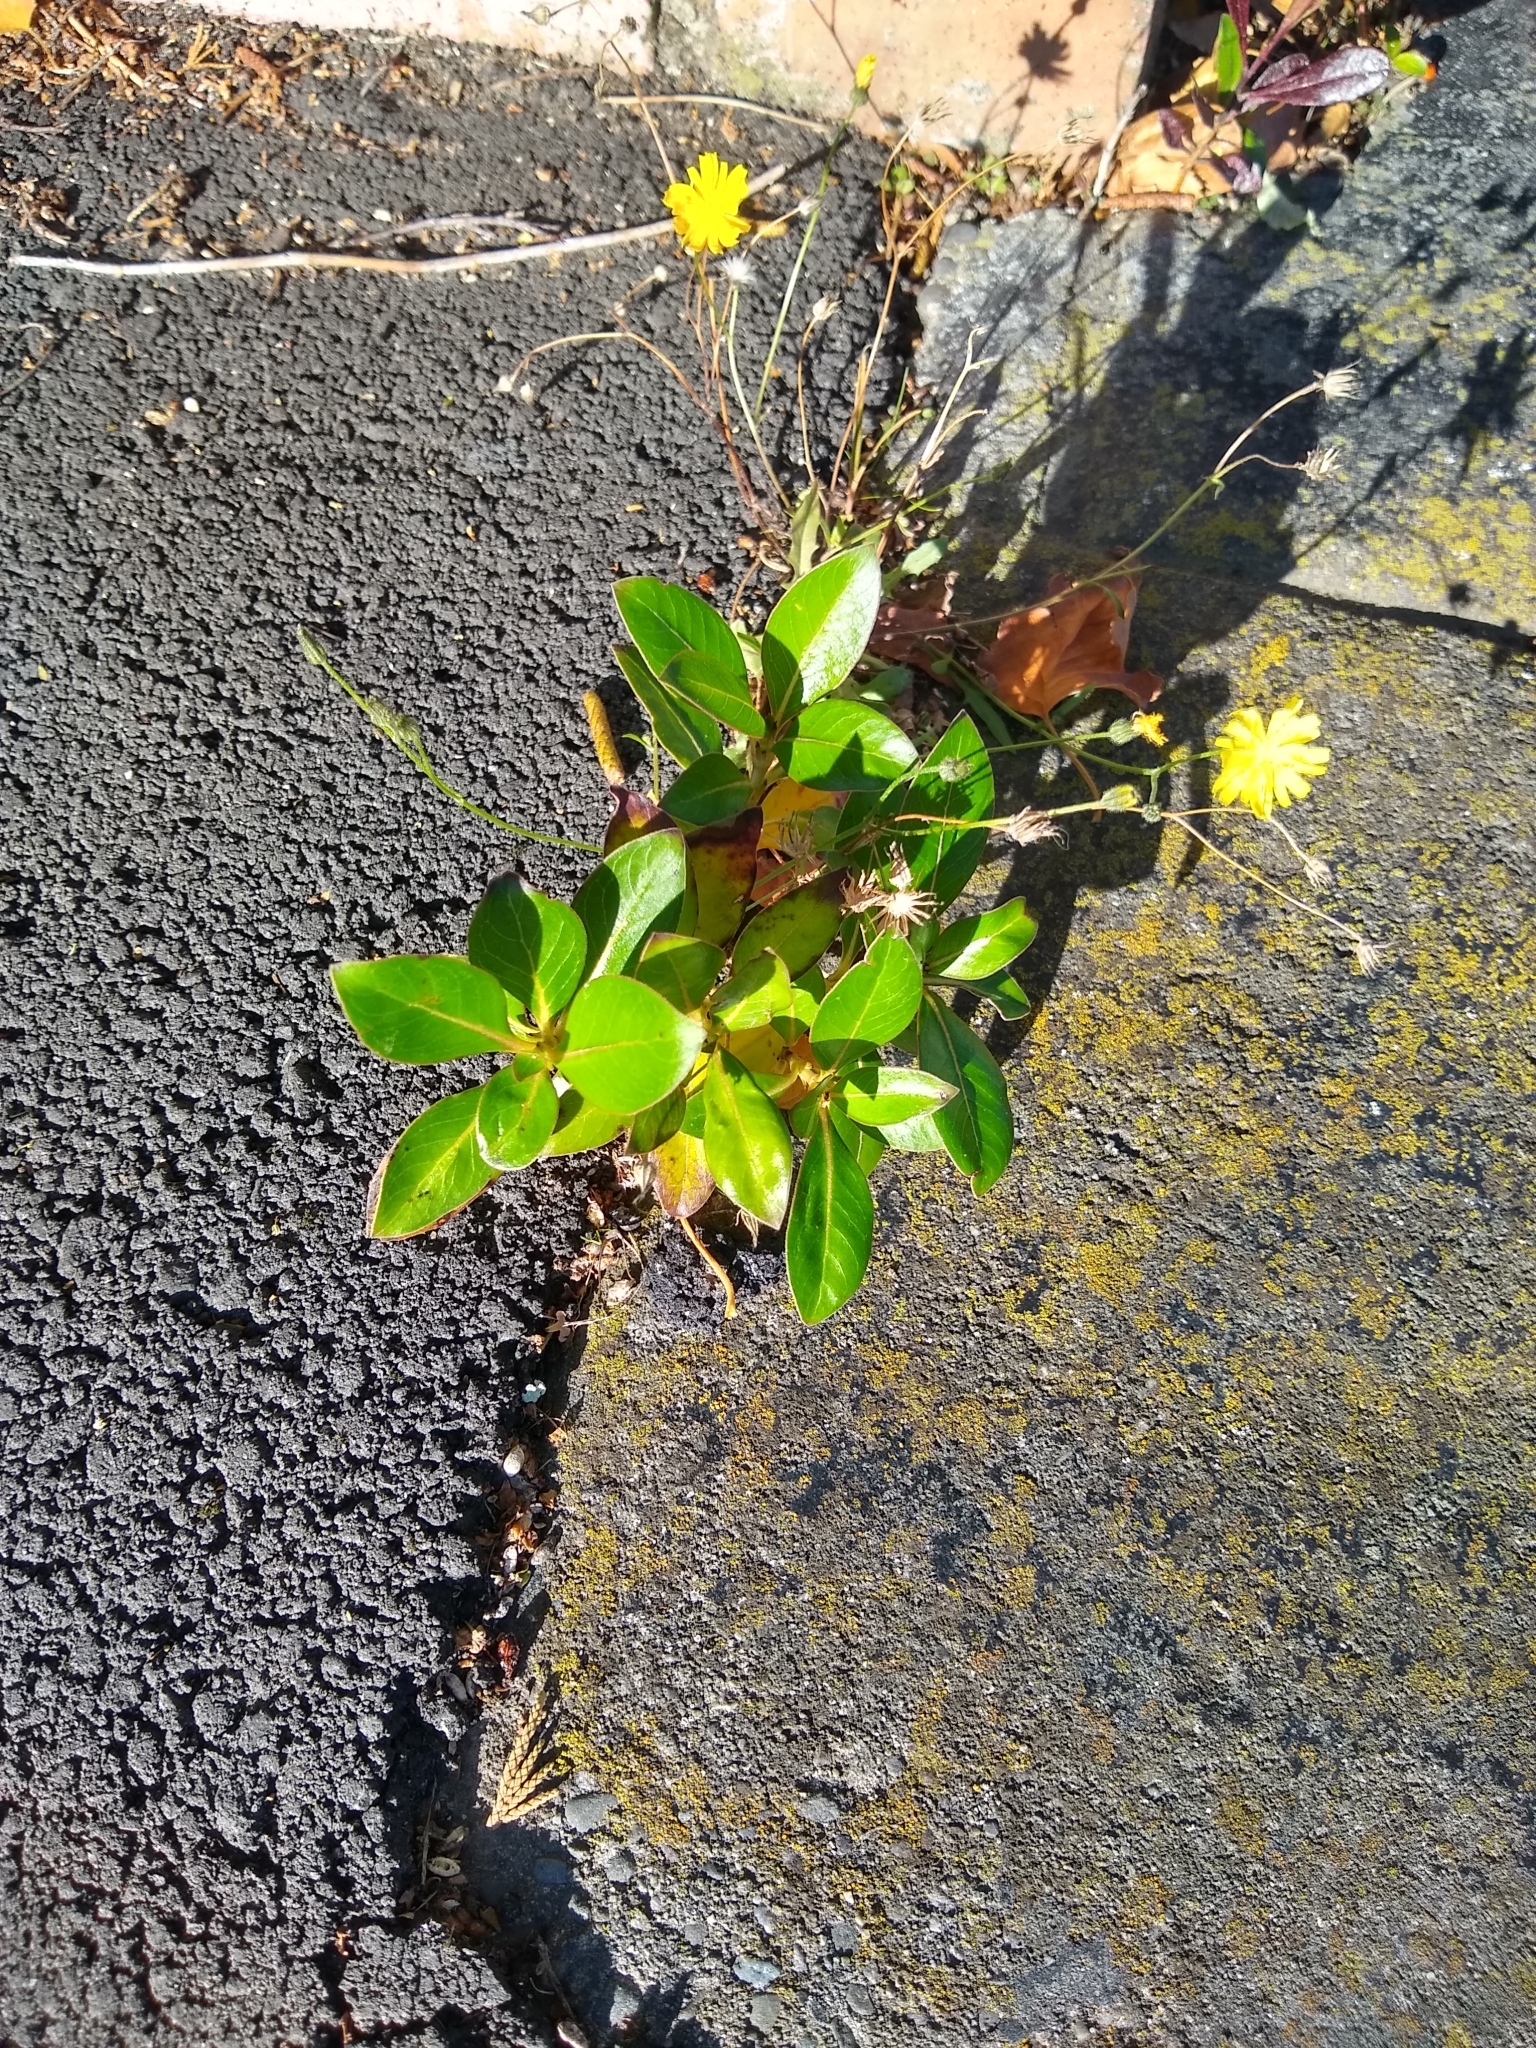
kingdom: Plantae
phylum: Tracheophyta
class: Magnoliopsida
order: Gentianales
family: Rubiaceae
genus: Coprosma
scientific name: Coprosma robusta
